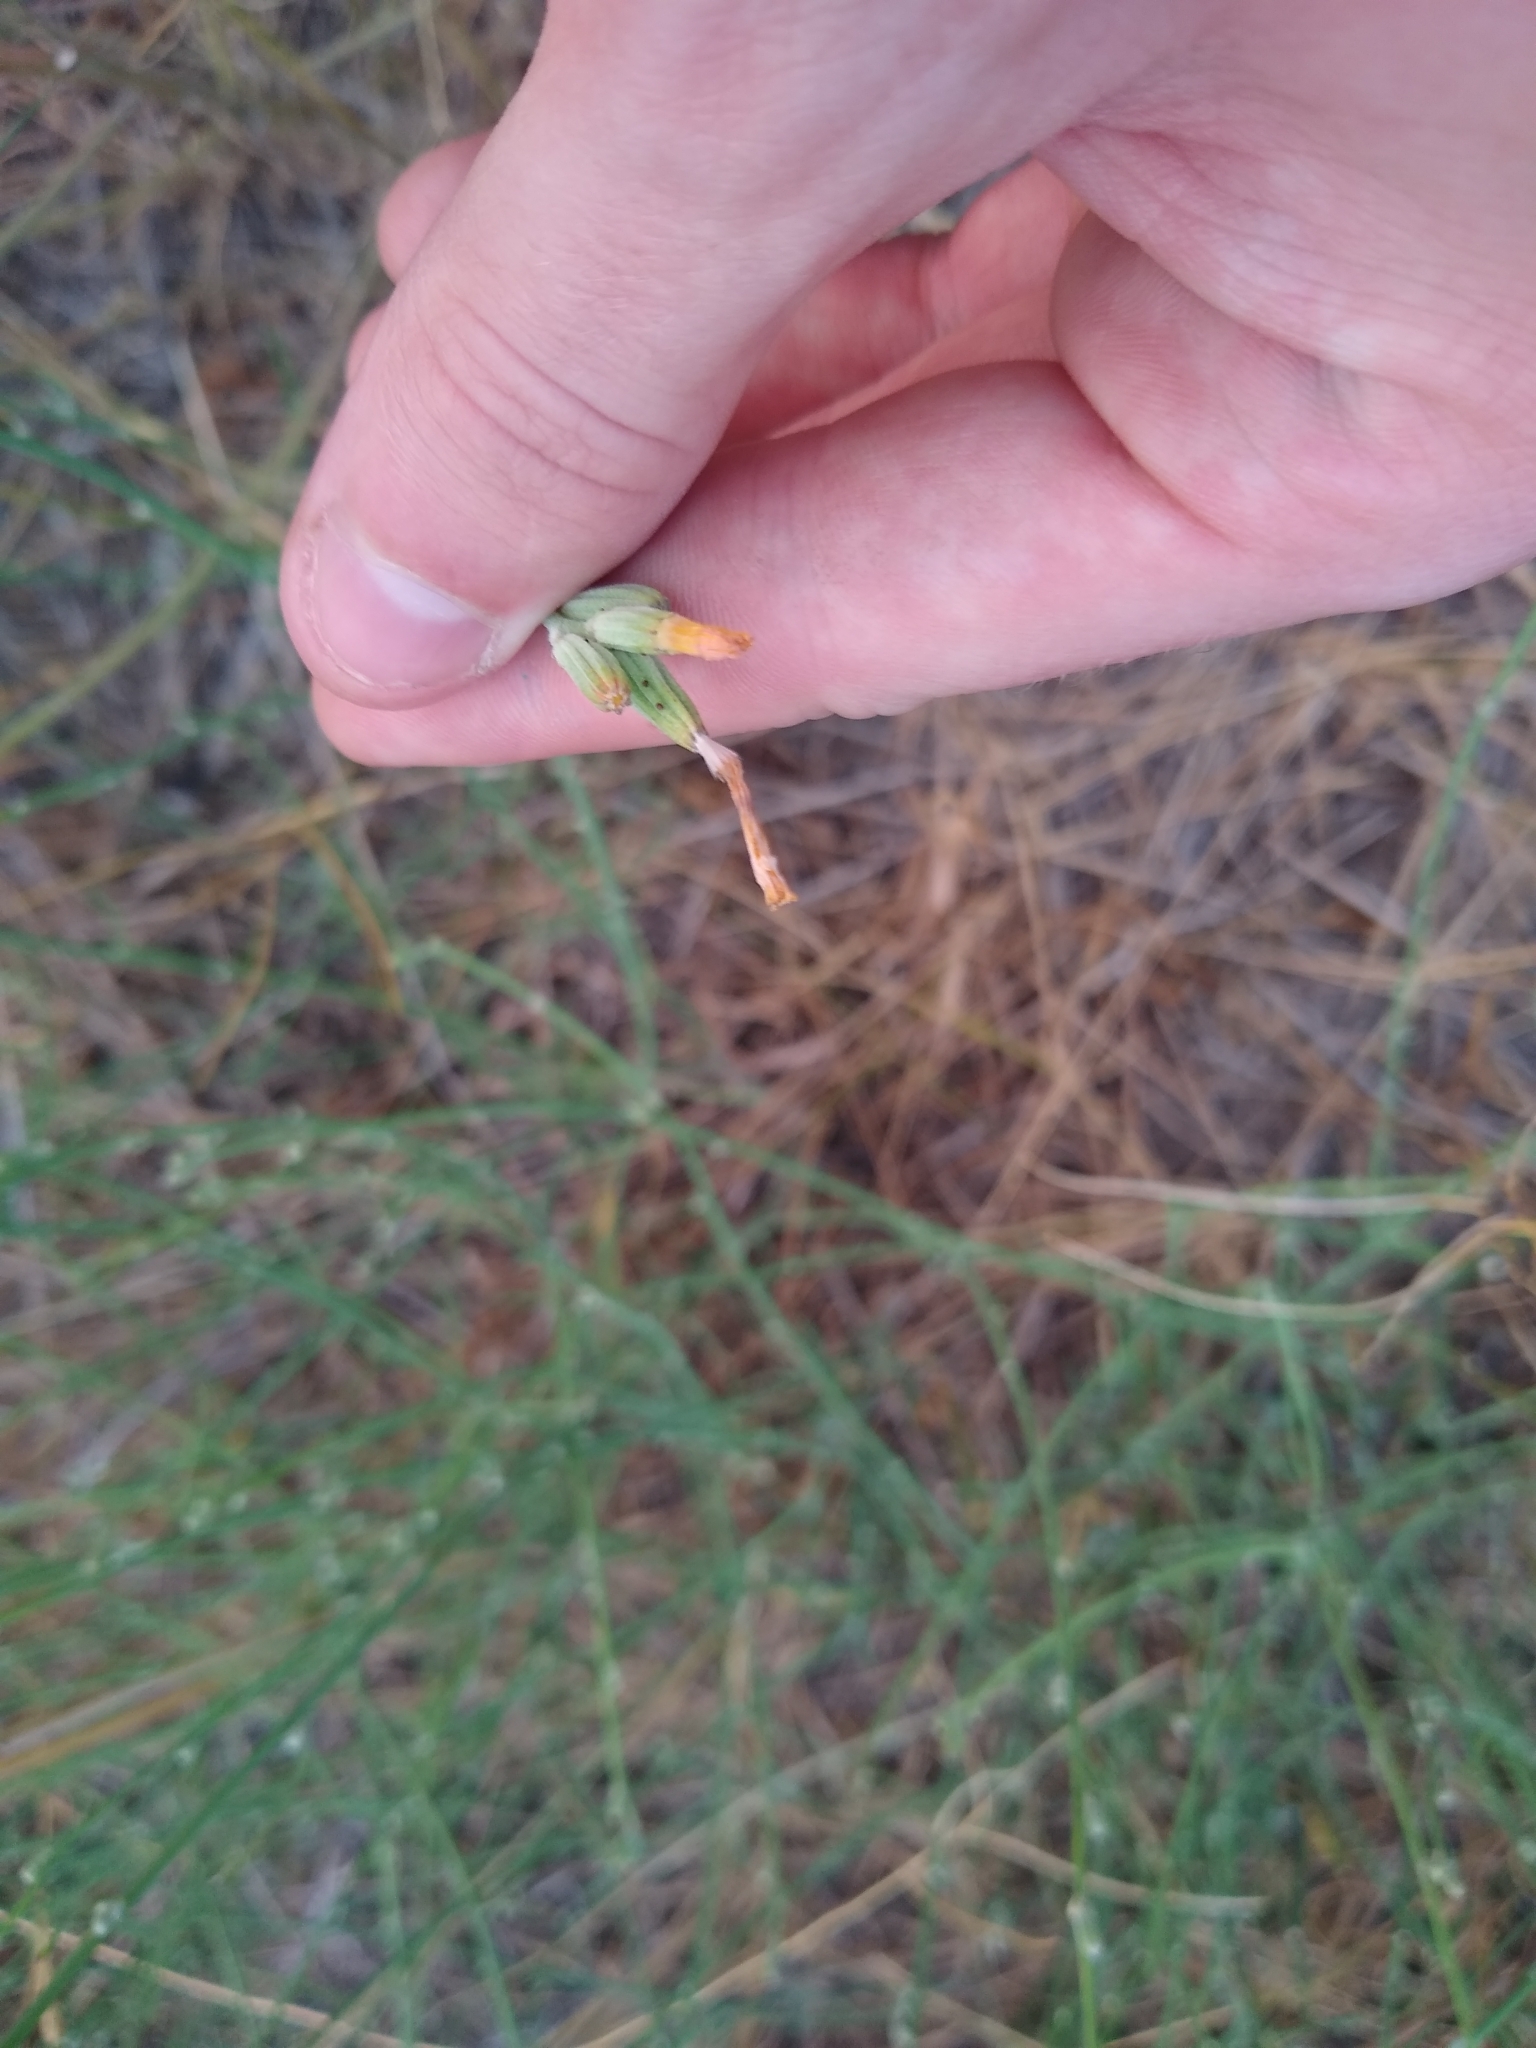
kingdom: Plantae
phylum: Tracheophyta
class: Magnoliopsida
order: Asterales
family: Asteraceae
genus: Chondrilla
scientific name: Chondrilla juncea
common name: Skeleton weed
